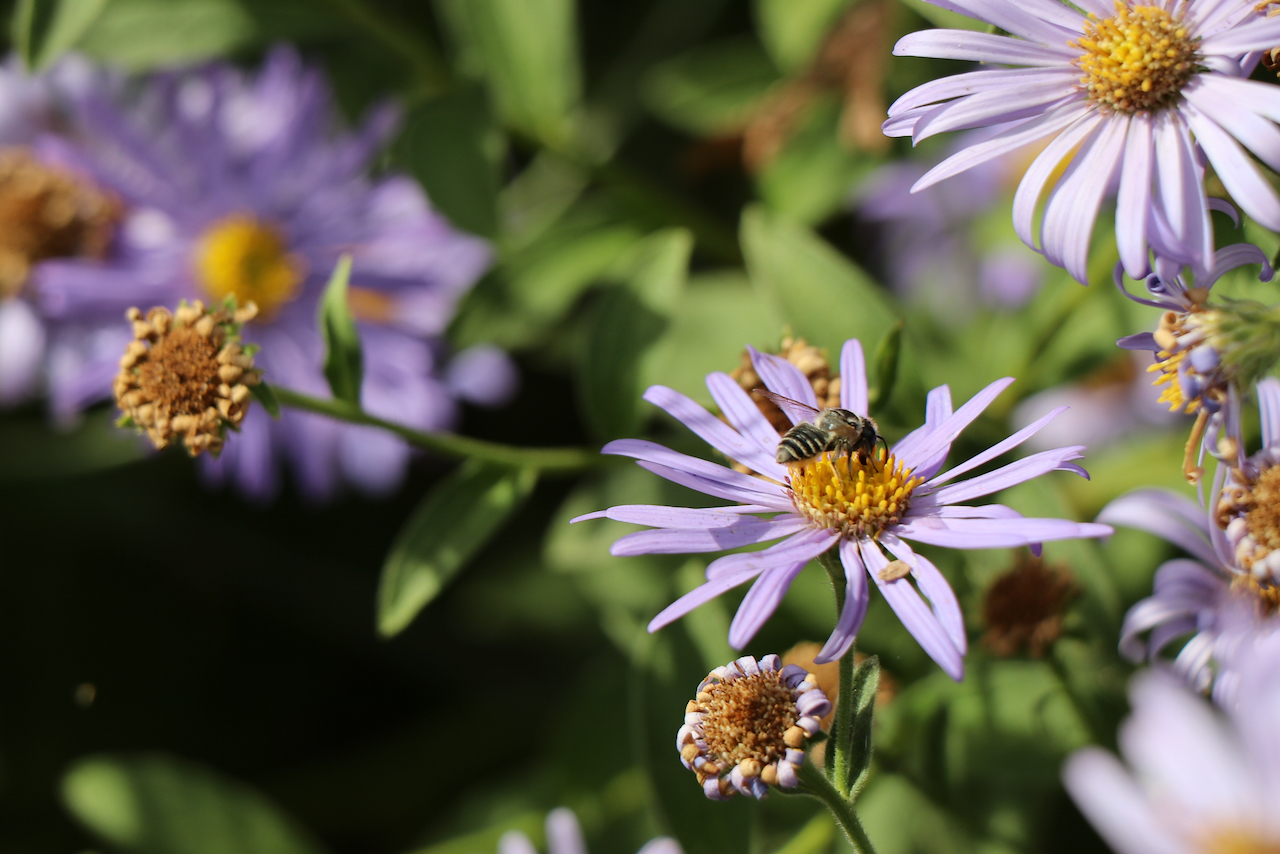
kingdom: Animalia
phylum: Arthropoda
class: Insecta
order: Hymenoptera
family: Megachilidae
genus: Megachile
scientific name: Megachile perihirta
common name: Western leafcutter
